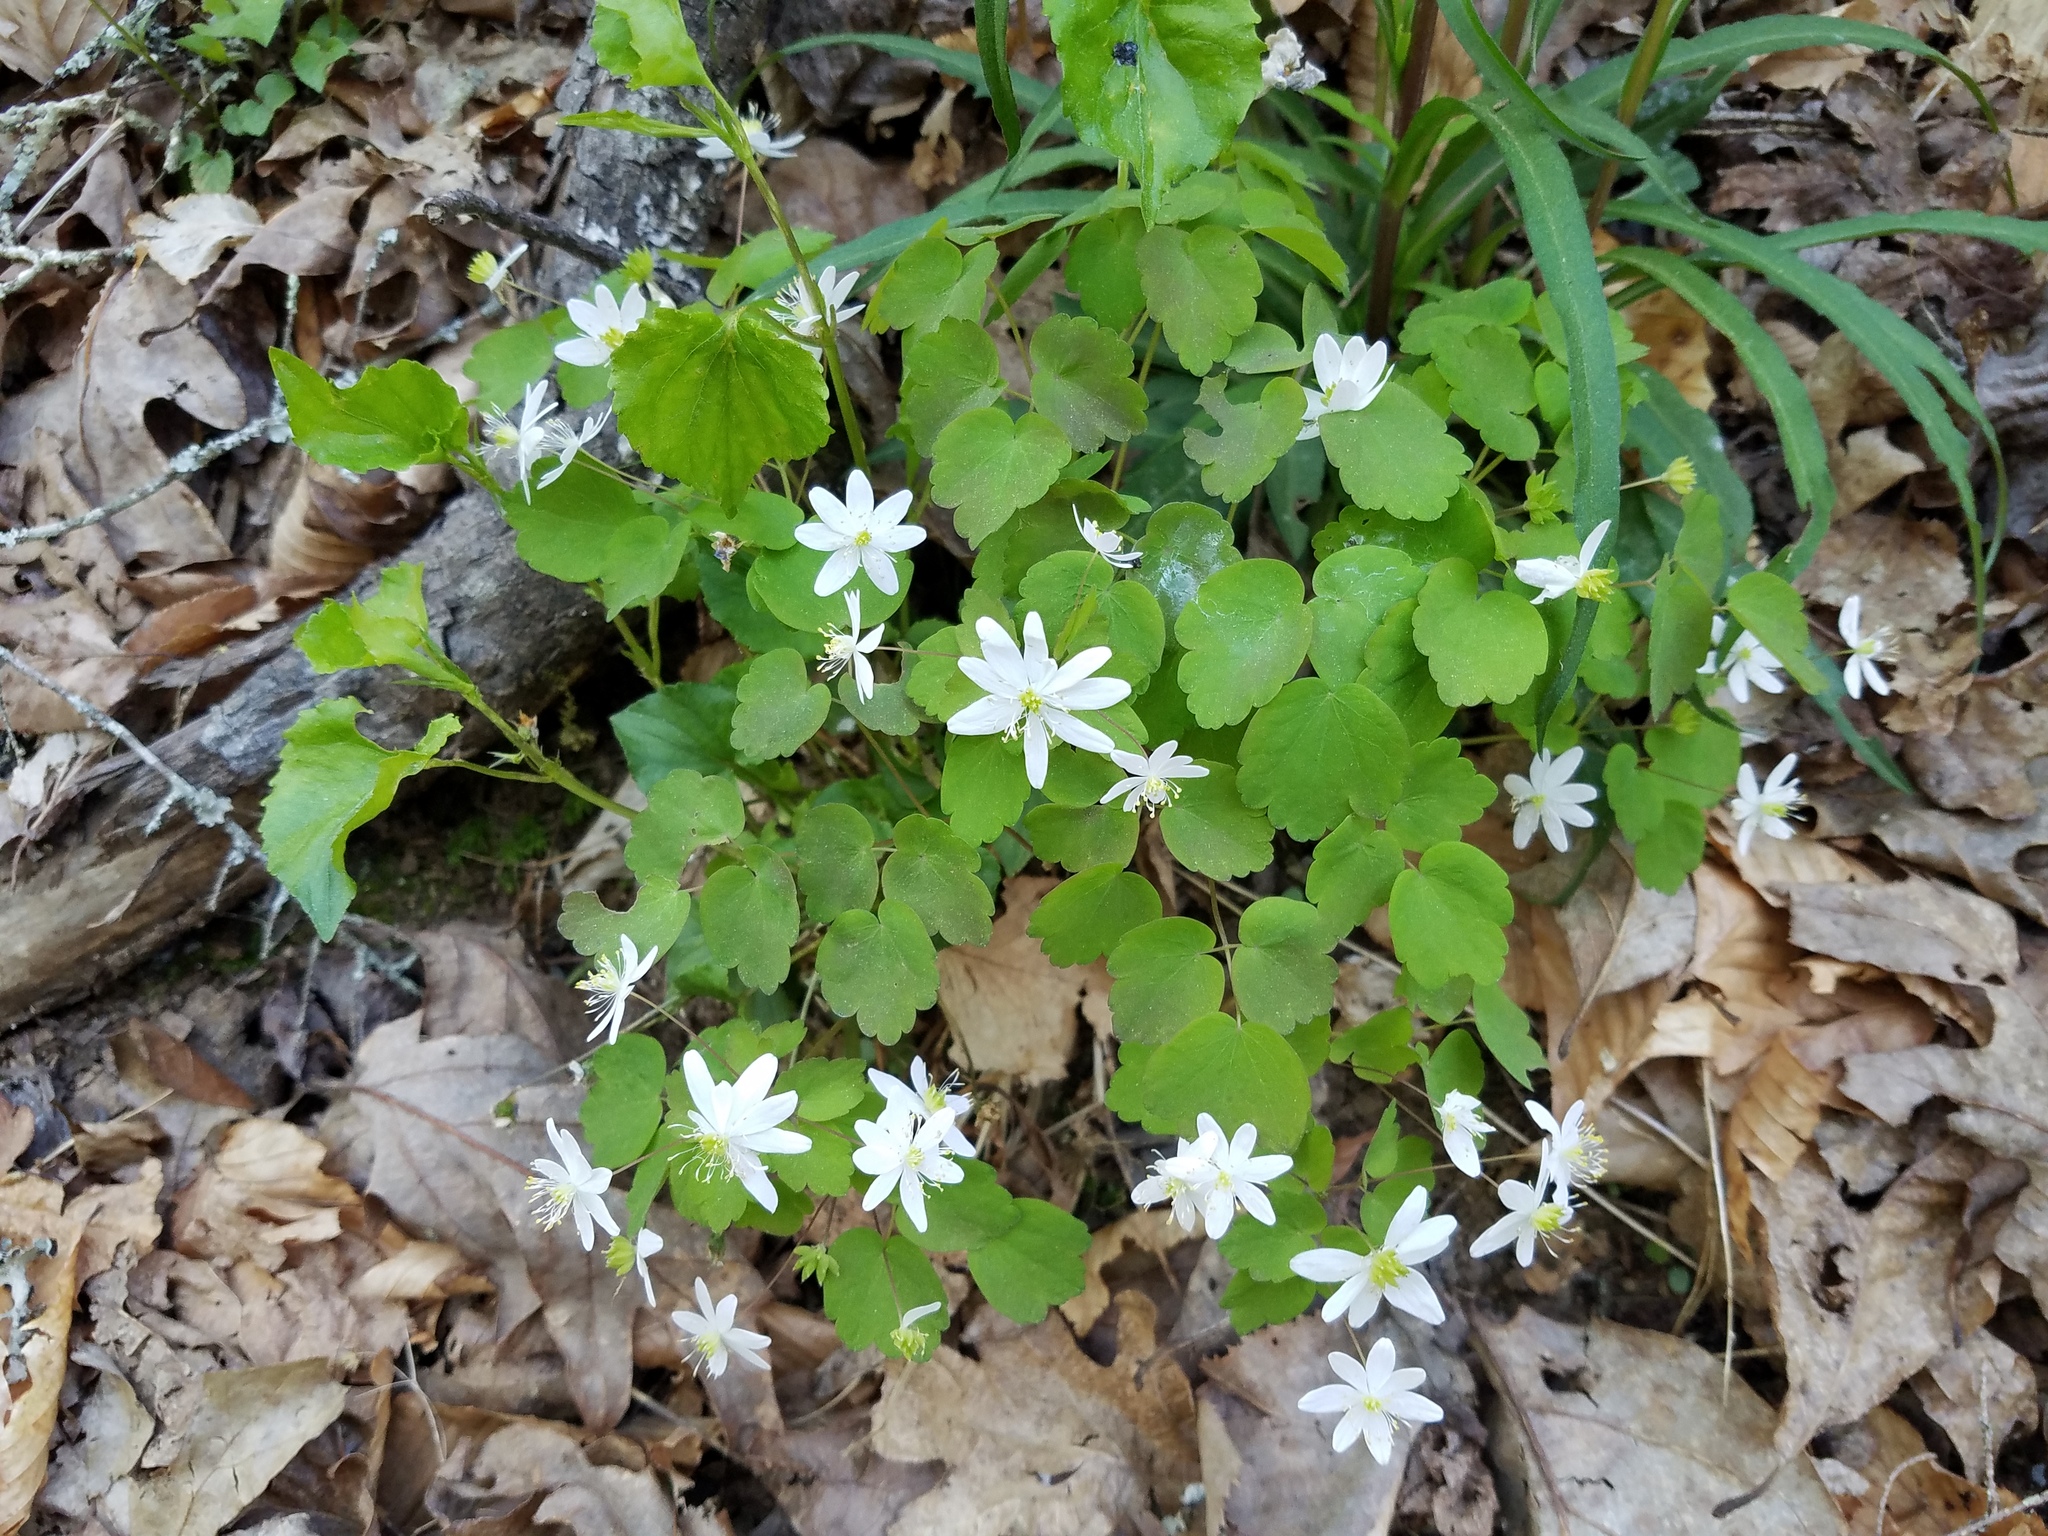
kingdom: Plantae
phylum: Tracheophyta
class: Magnoliopsida
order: Ranunculales
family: Ranunculaceae
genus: Thalictrum
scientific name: Thalictrum thalictroides
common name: Rue-anemone
